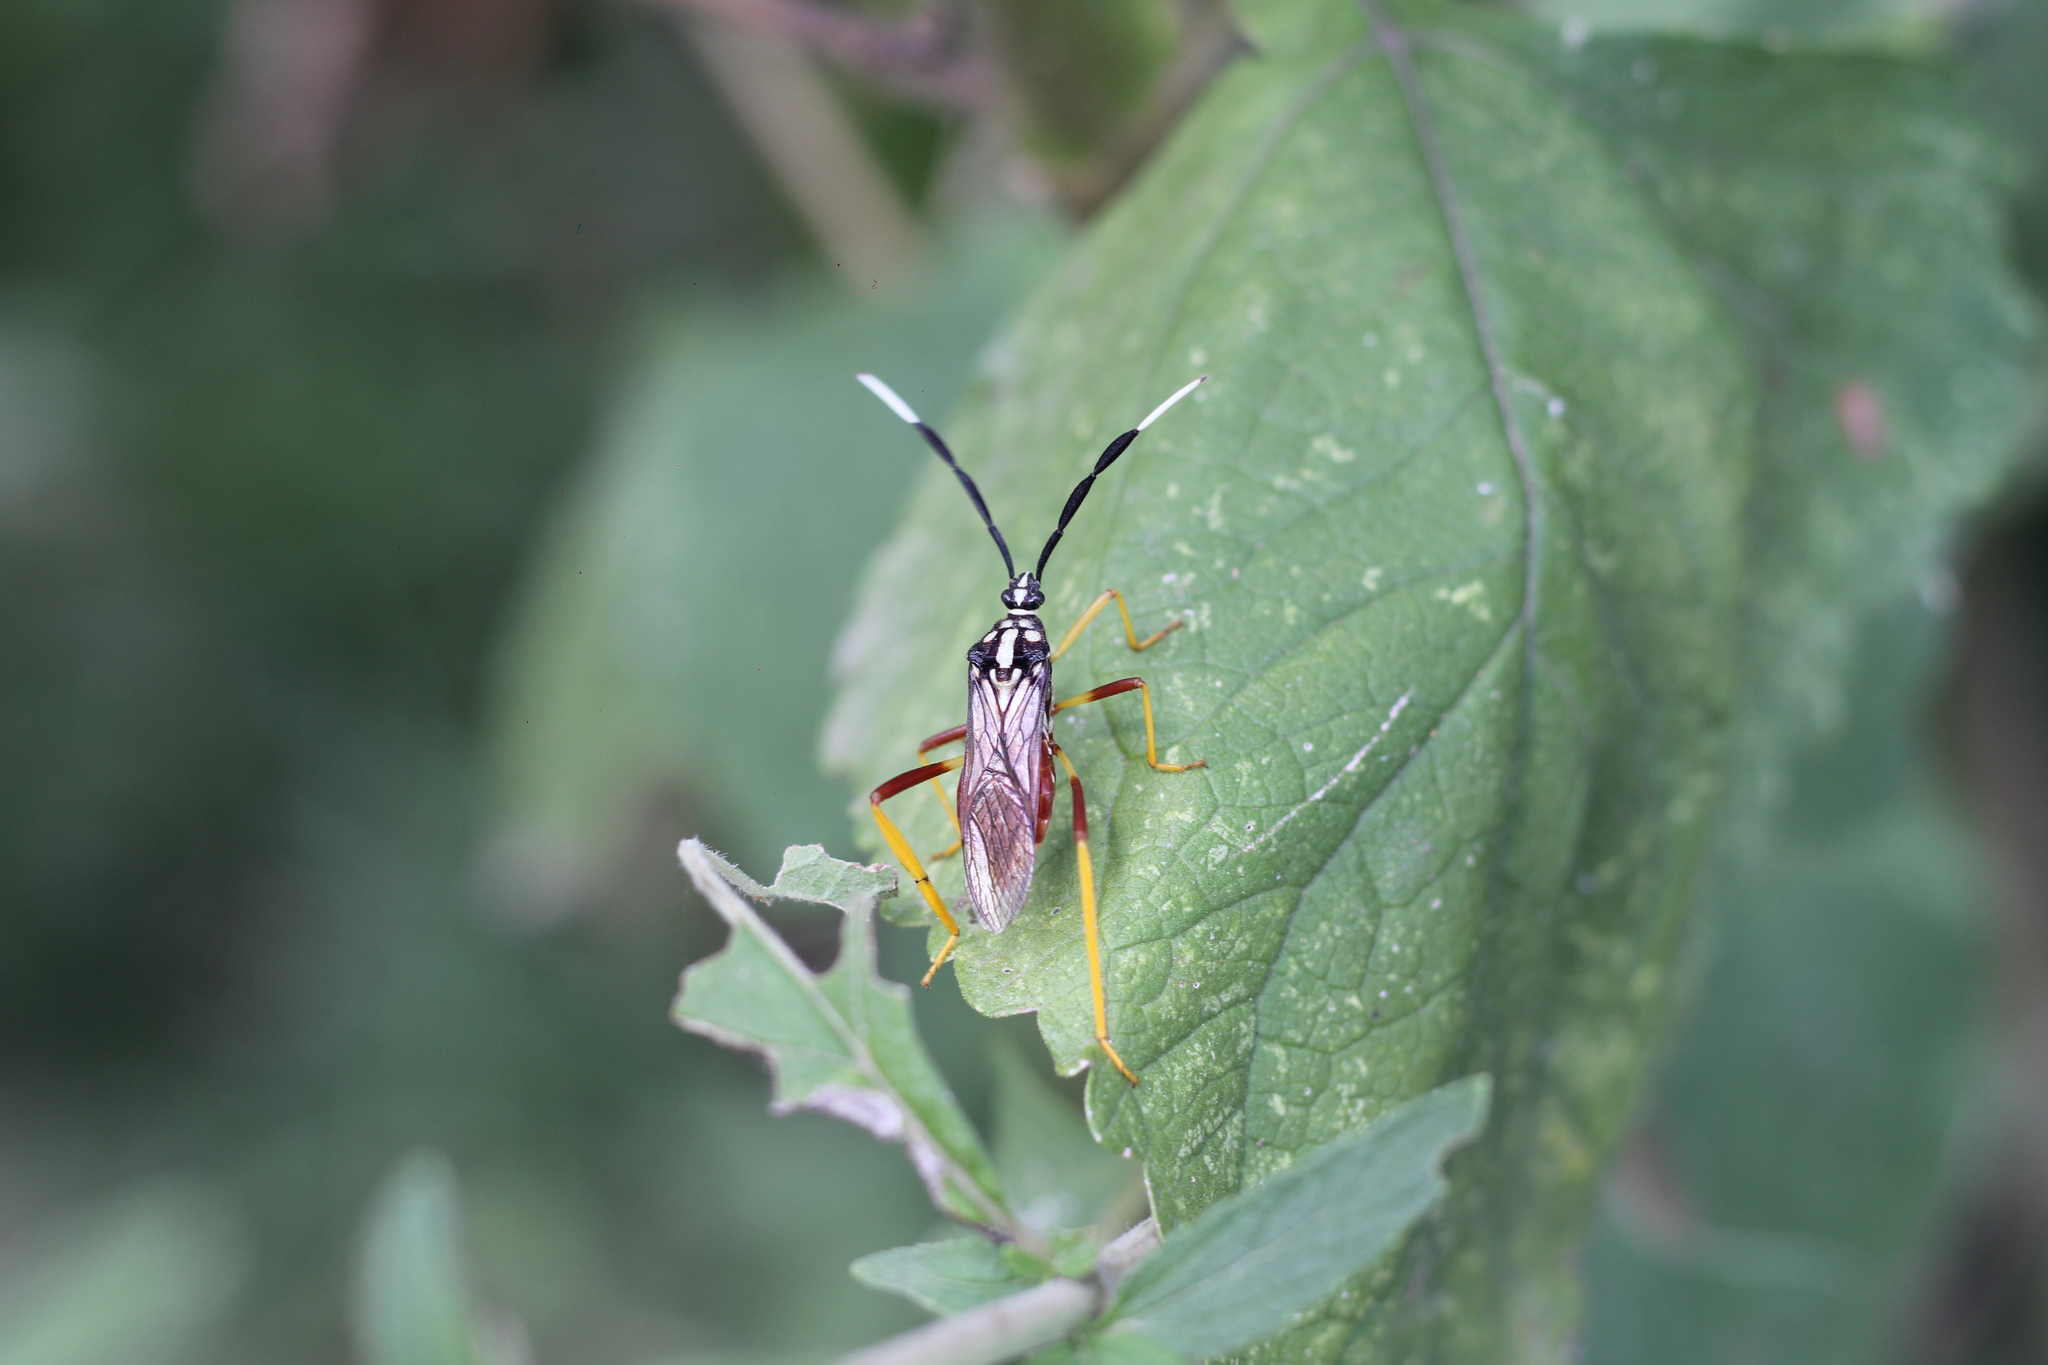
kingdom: Animalia
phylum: Arthropoda
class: Insecta
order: Hemiptera
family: Coreidae
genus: Holhymenia
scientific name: Holhymenia histrio
